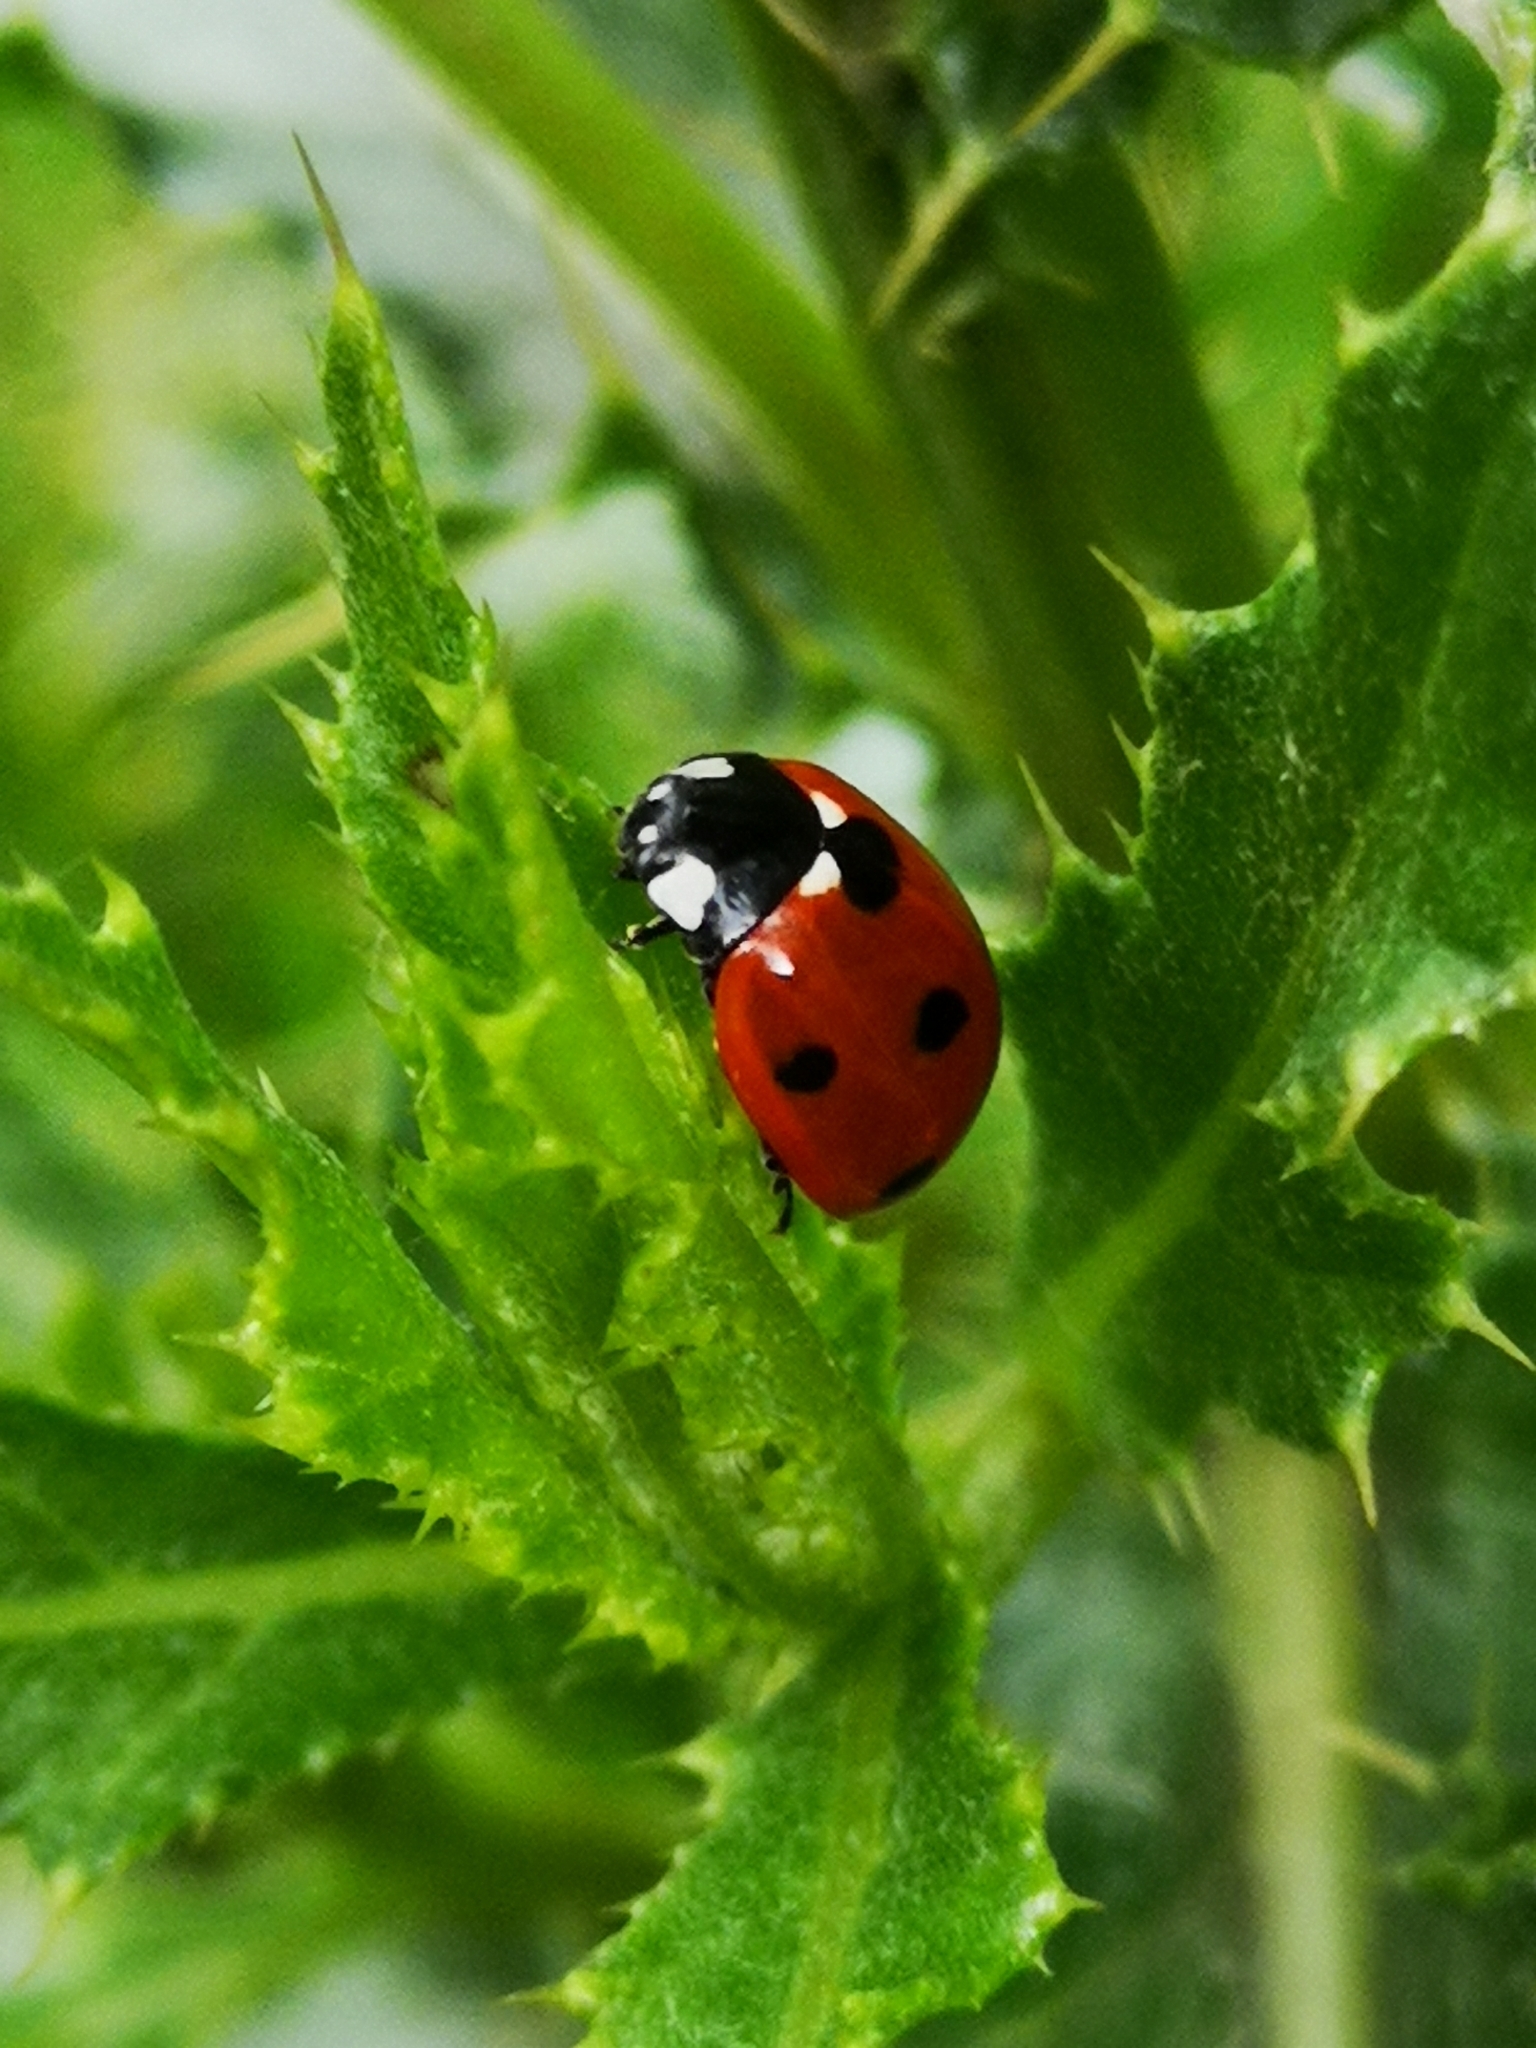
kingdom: Animalia
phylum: Arthropoda
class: Insecta
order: Coleoptera
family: Coccinellidae
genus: Coccinella
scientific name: Coccinella septempunctata
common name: Sevenspotted lady beetle
